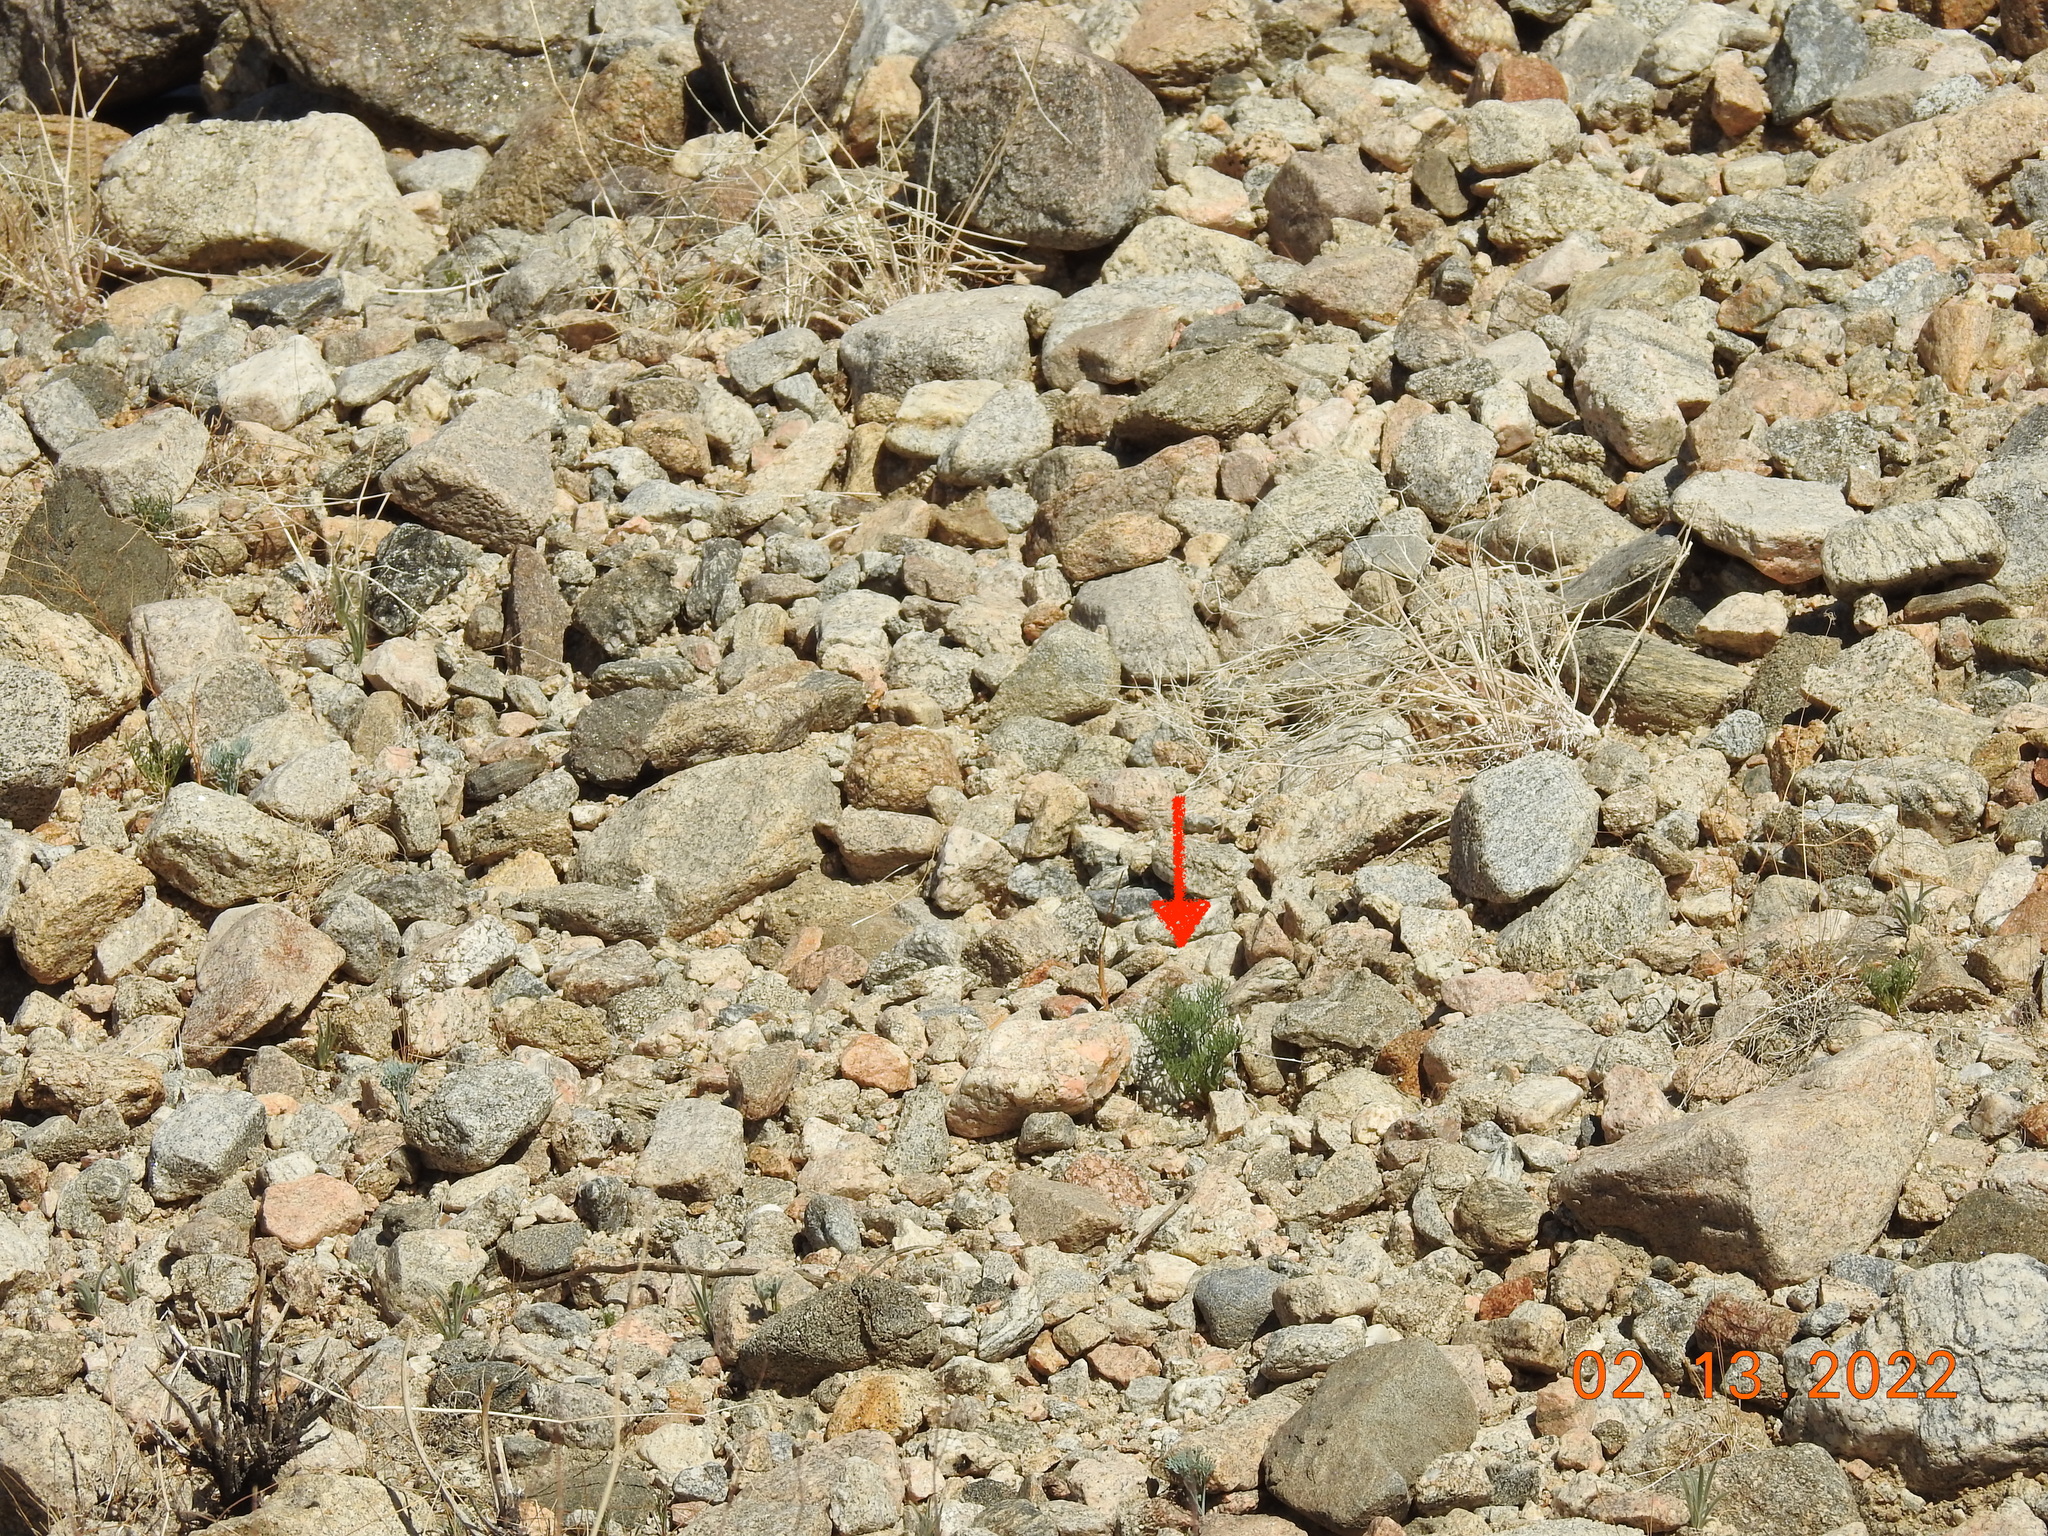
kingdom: Plantae
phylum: Tracheophyta
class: Magnoliopsida
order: Asterales
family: Asteraceae
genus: Chaenactis
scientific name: Chaenactis carphoclinia
